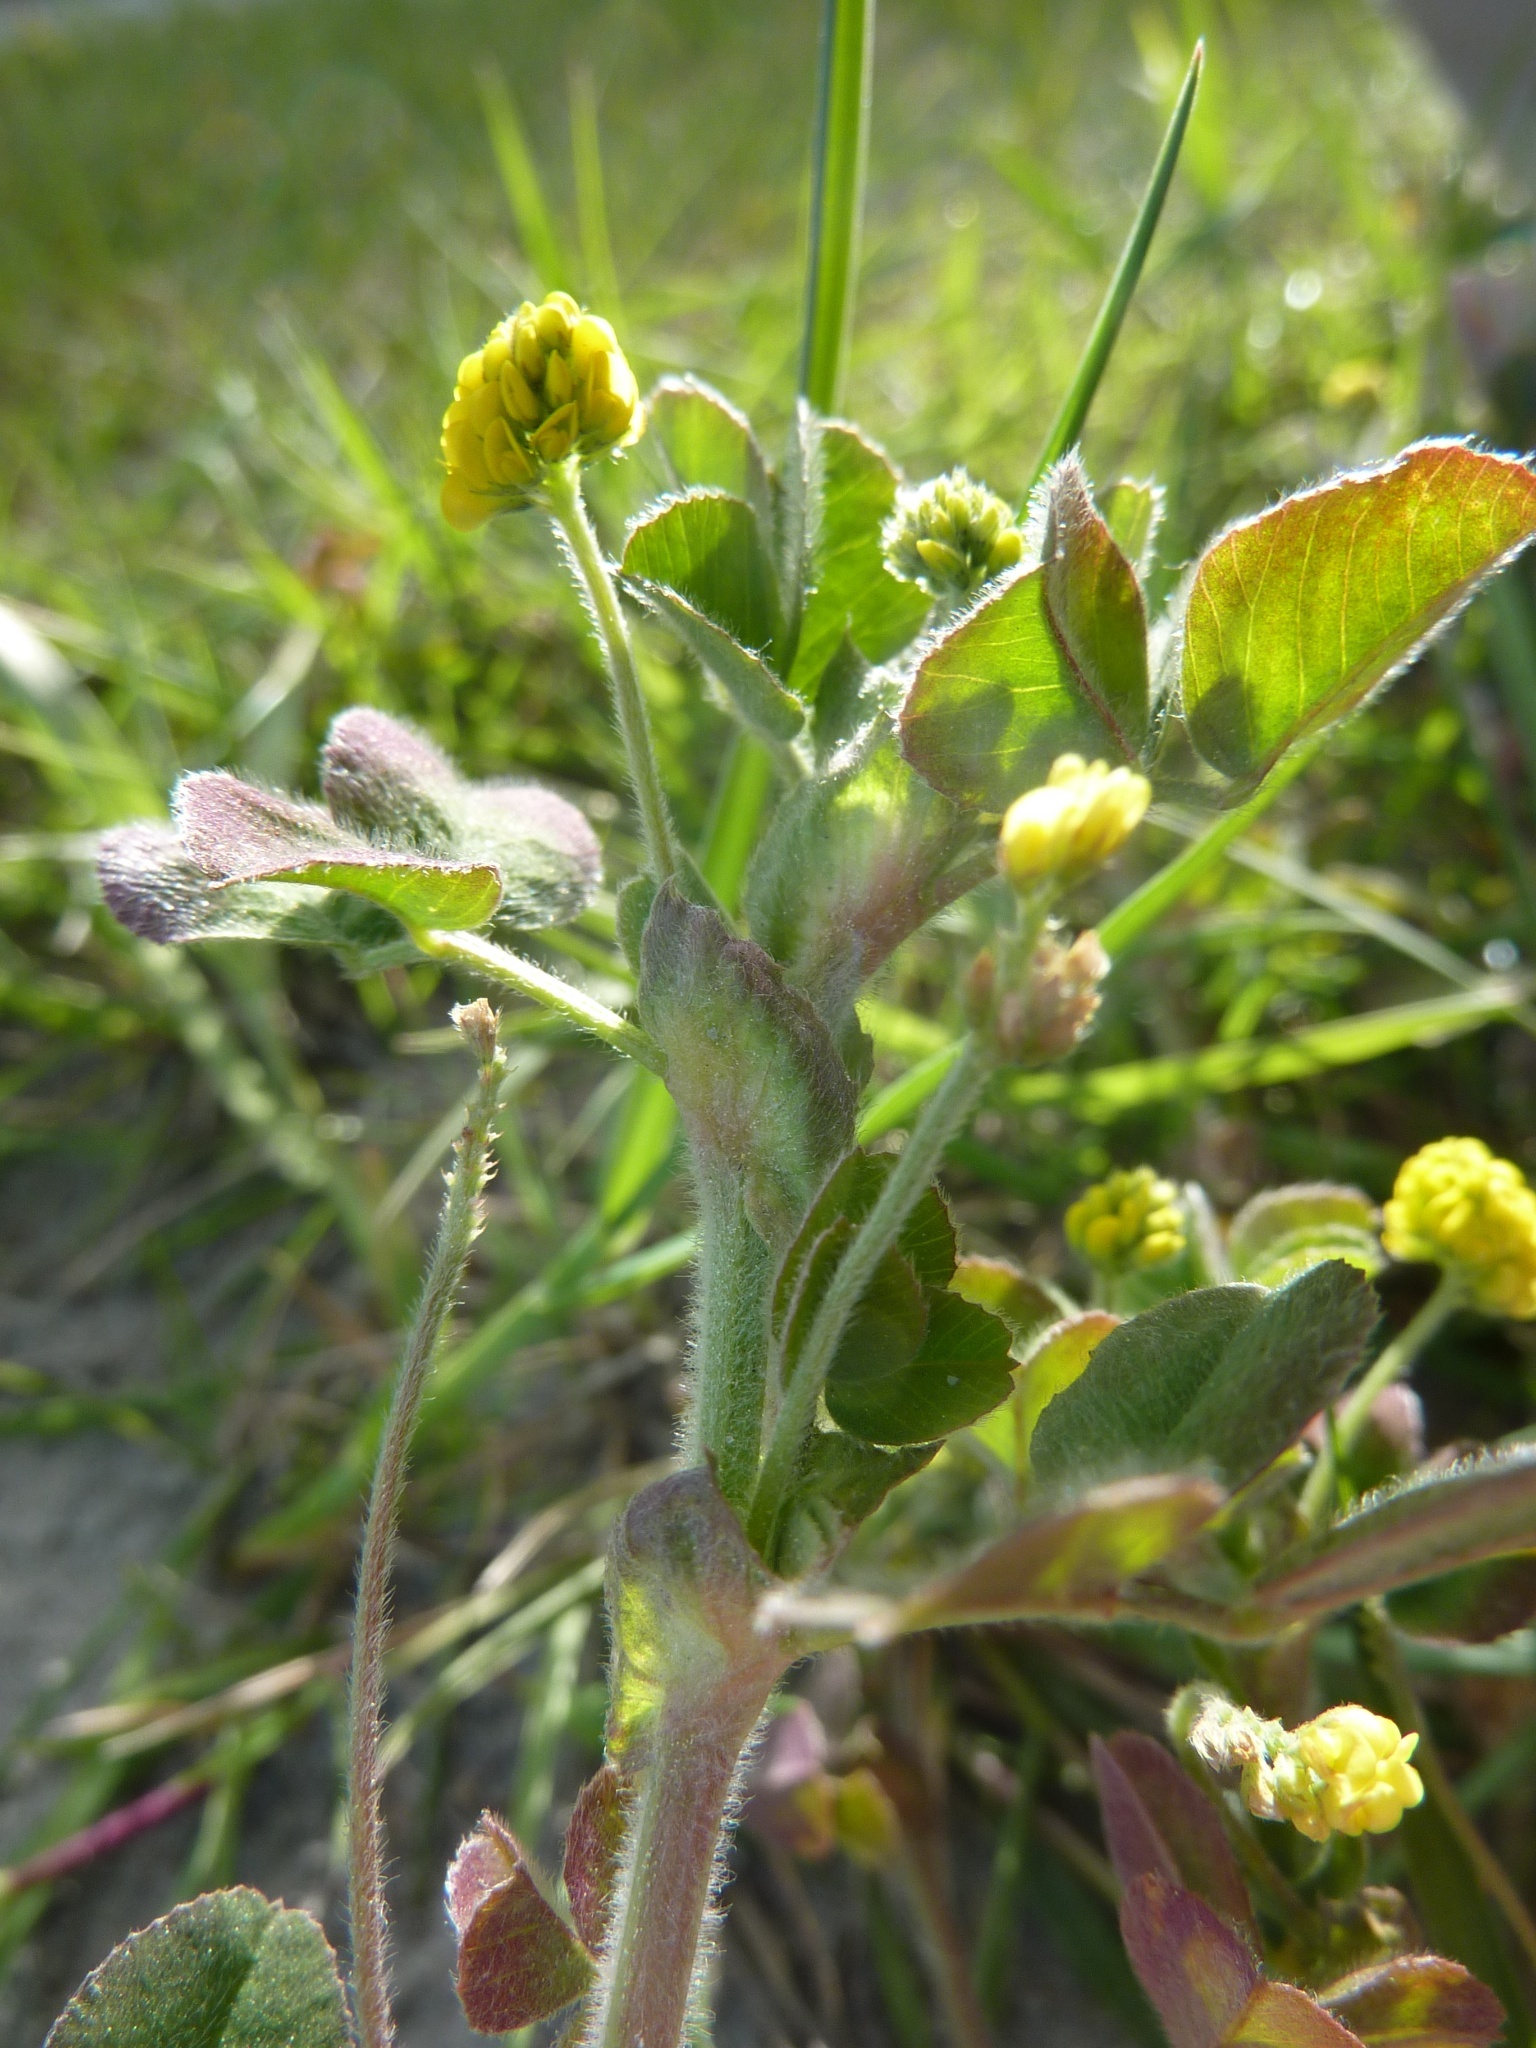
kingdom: Plantae
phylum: Tracheophyta
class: Magnoliopsida
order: Fabales
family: Fabaceae
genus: Medicago
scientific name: Medicago lupulina
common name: Black medick
